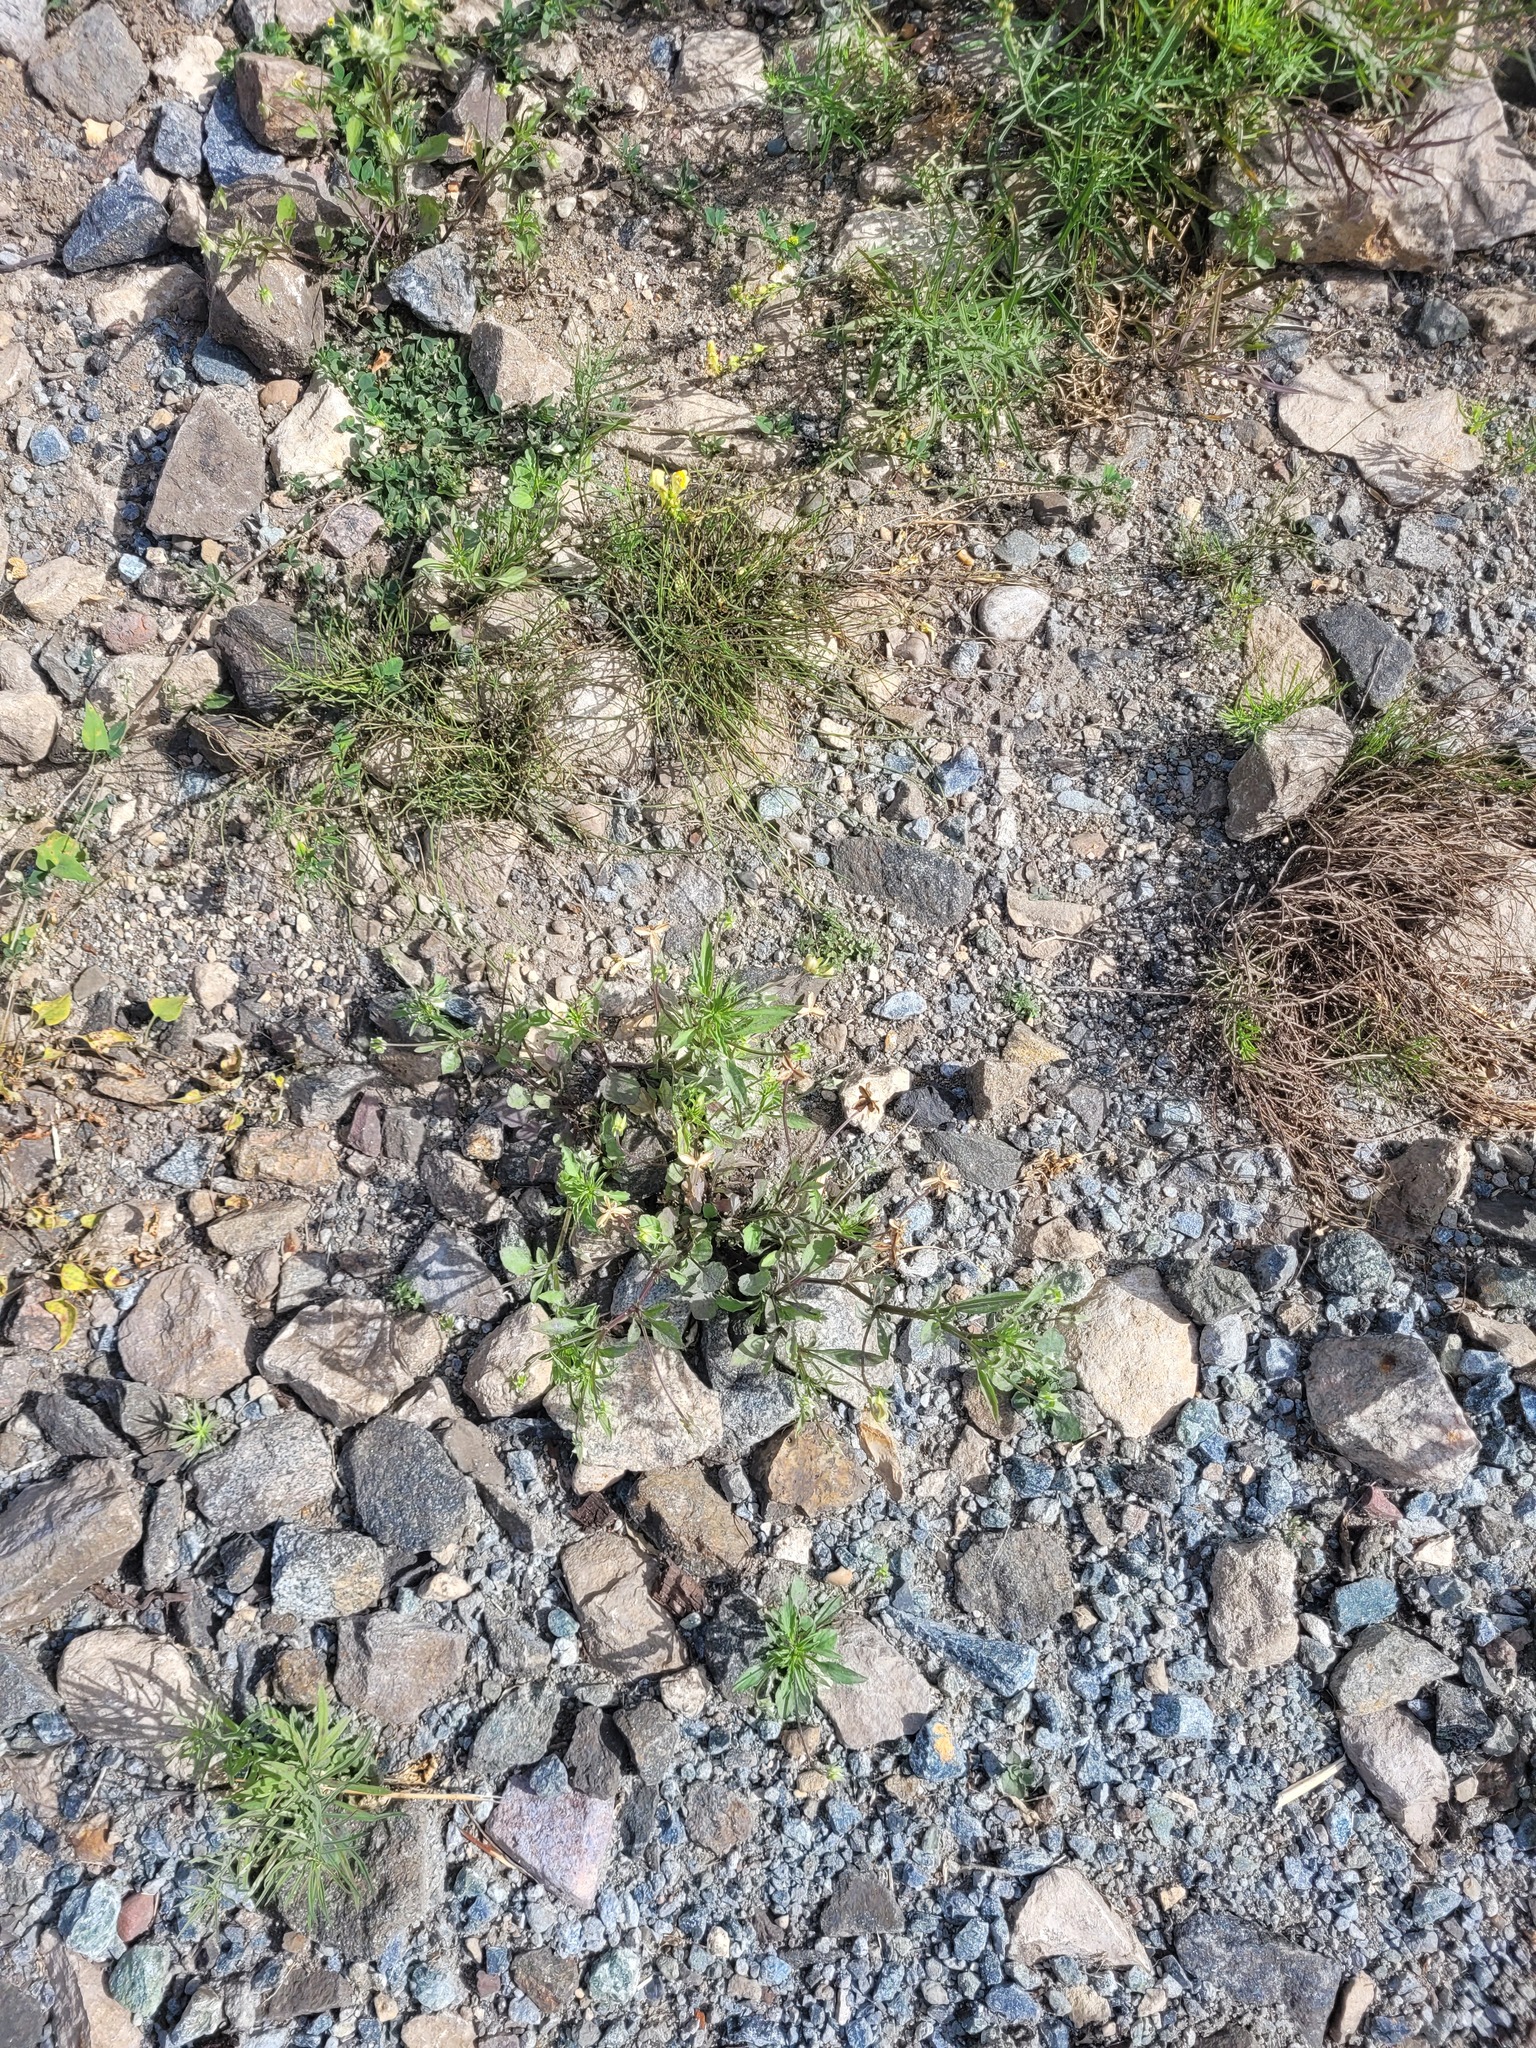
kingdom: Plantae
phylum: Tracheophyta
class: Magnoliopsida
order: Malpighiales
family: Violaceae
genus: Viola
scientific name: Viola arvensis
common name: Field pansy
